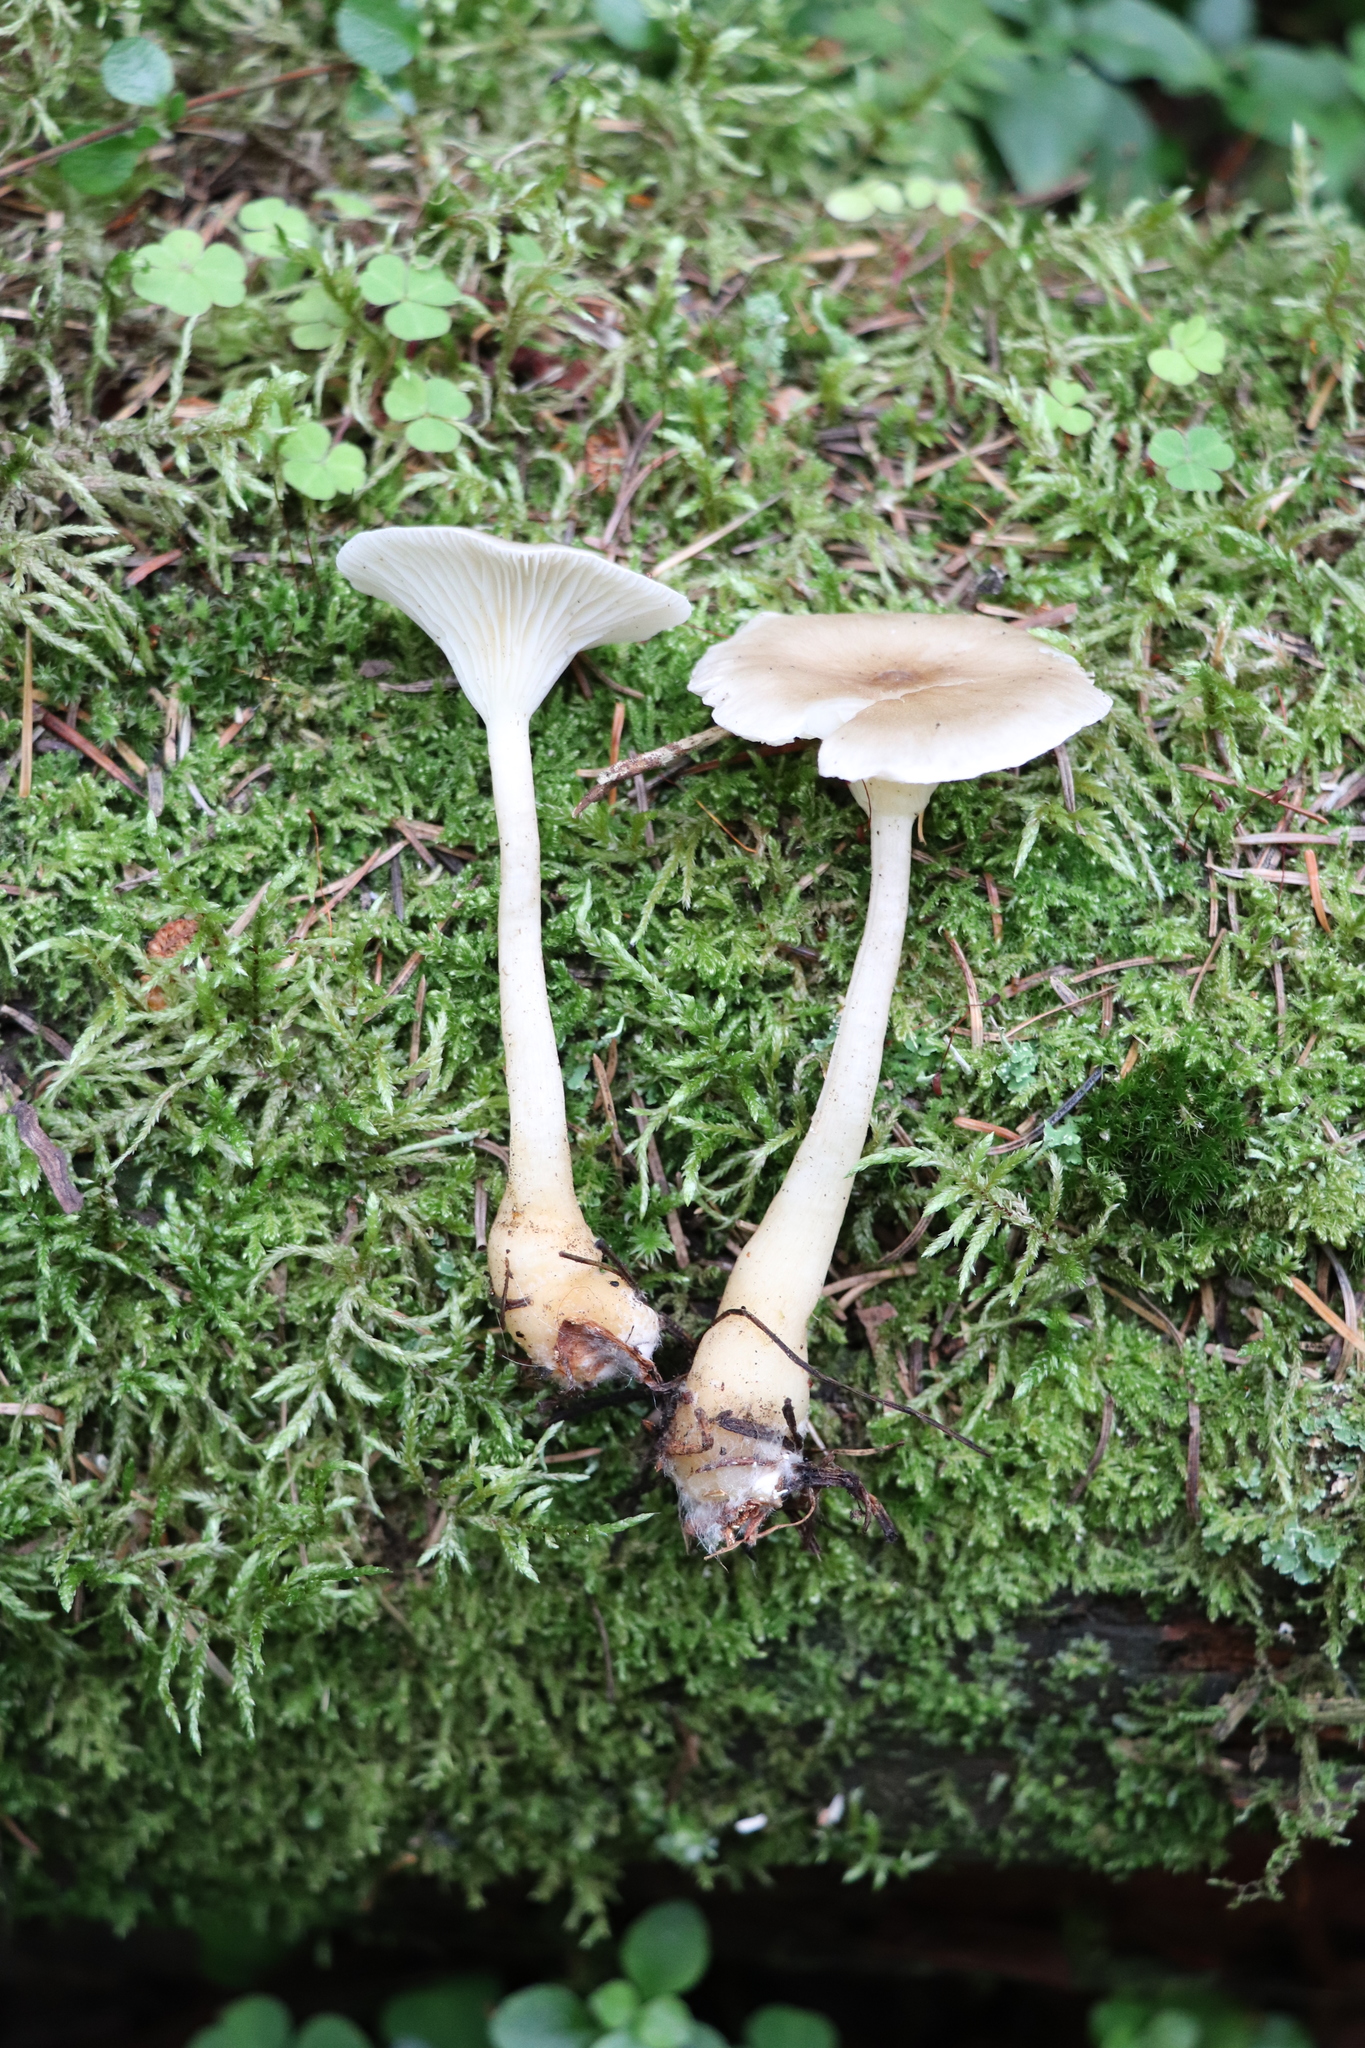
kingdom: Fungi
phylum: Basidiomycota
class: Agaricomycetes
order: Agaricales
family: Hygrophoraceae
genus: Ampulloclitocybe
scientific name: Ampulloclitocybe clavipes
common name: Club foot
